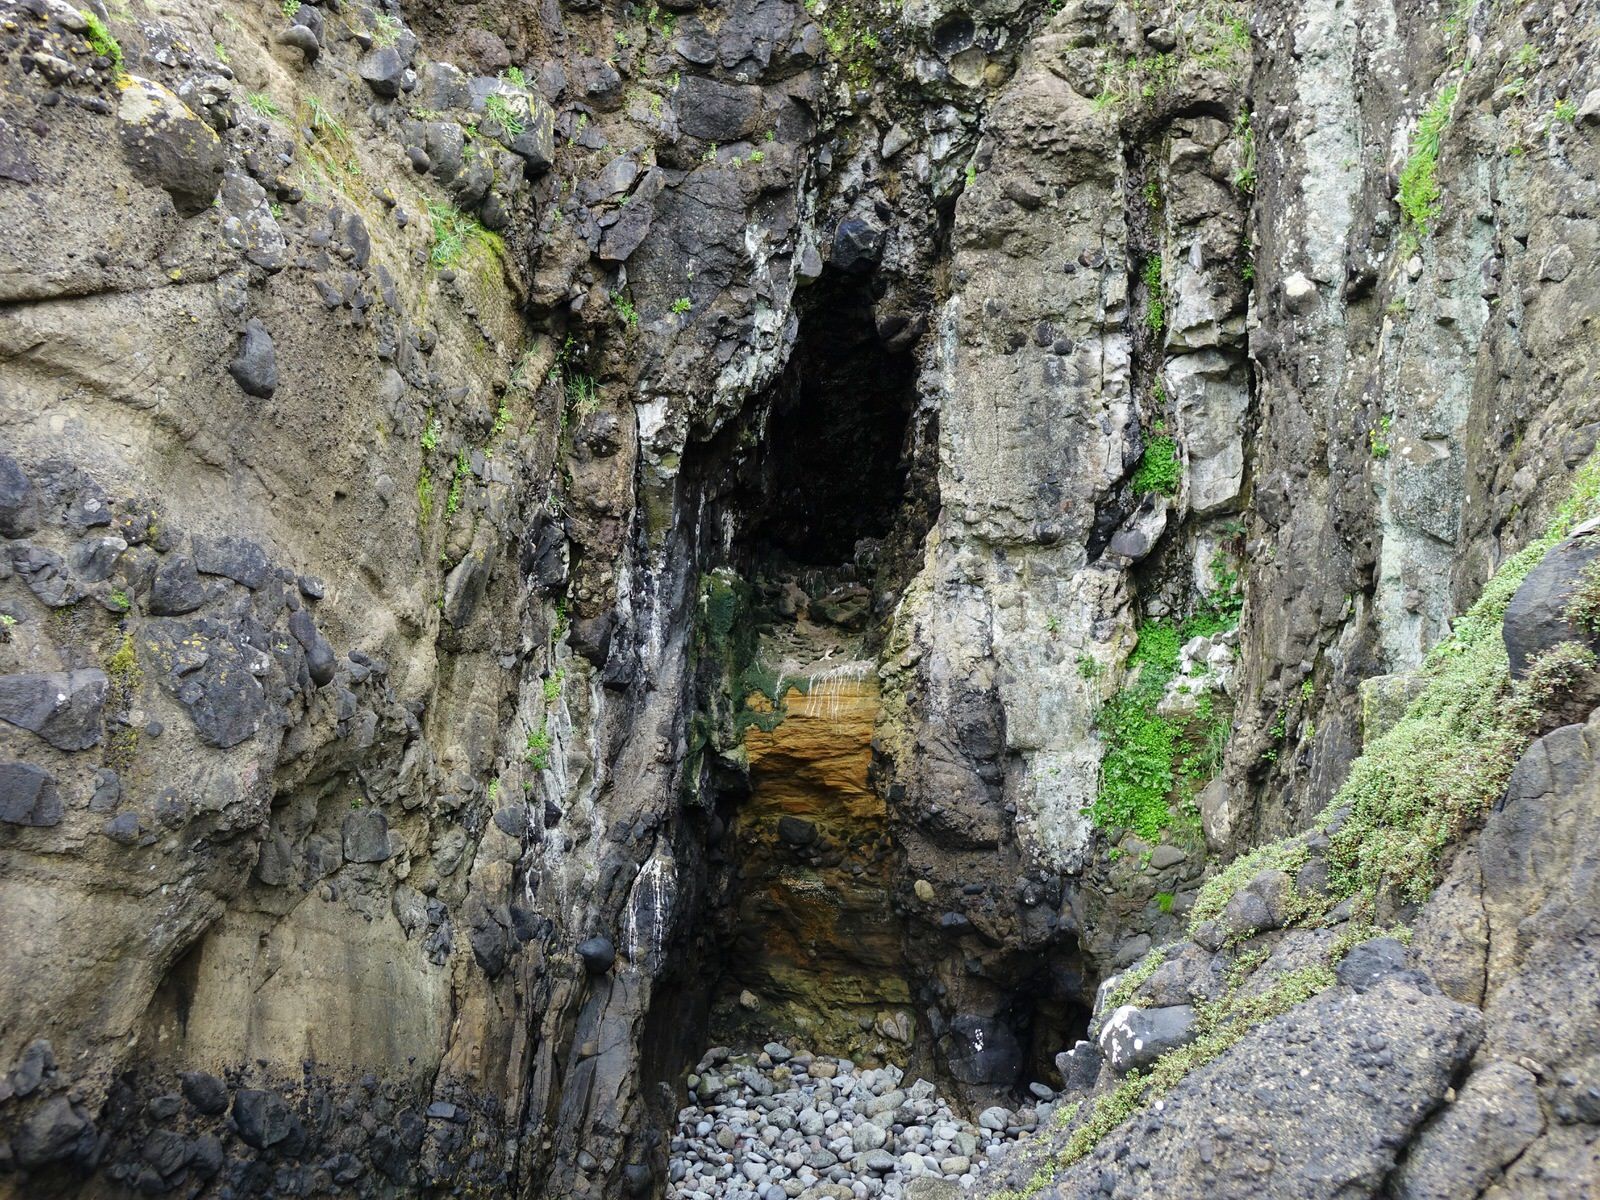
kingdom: Animalia
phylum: Chordata
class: Aves
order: Pelecaniformes
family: Ardeidae
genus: Egretta
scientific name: Egretta sacra
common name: Pacific reef heron
